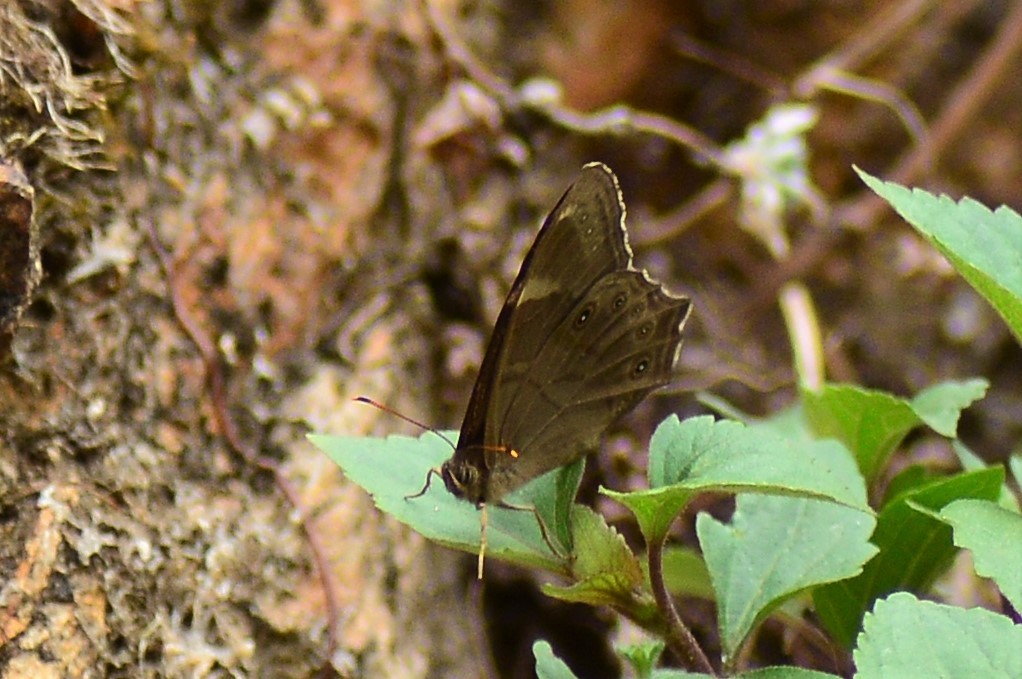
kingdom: Animalia
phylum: Arthropoda
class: Insecta
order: Lepidoptera
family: Nymphalidae
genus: Lethe
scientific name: Lethe
